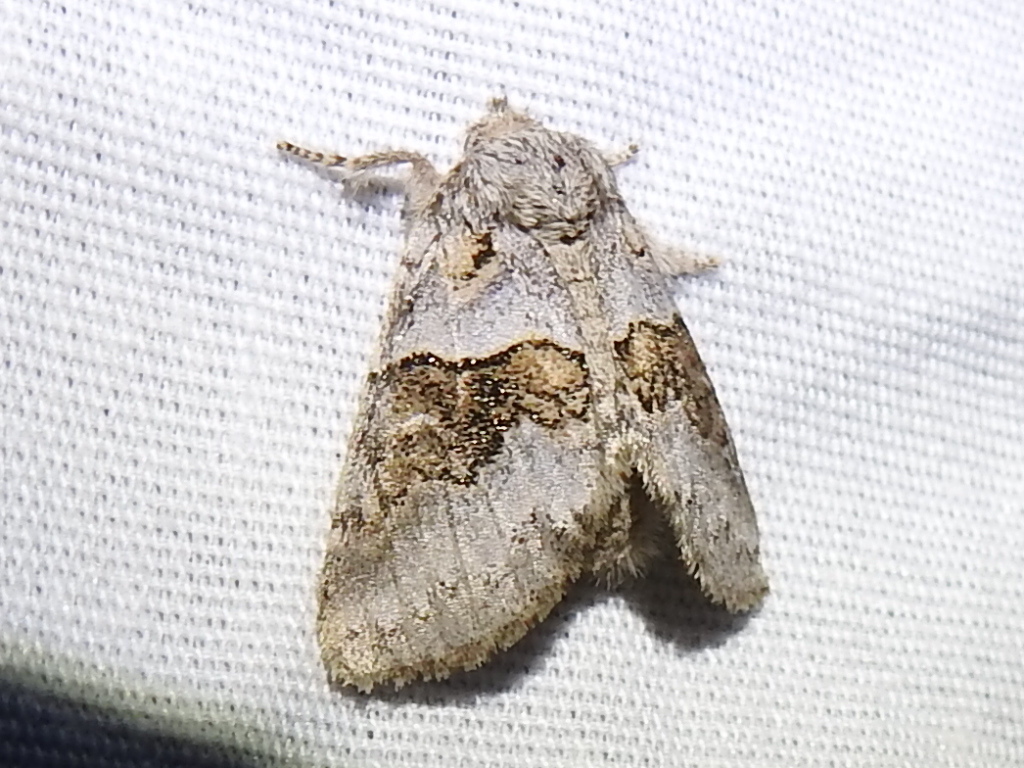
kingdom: Animalia
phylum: Arthropoda
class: Insecta
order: Lepidoptera
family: Notodontidae
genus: Gluphisia
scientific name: Gluphisia septentrionis
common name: Common gluphisia
